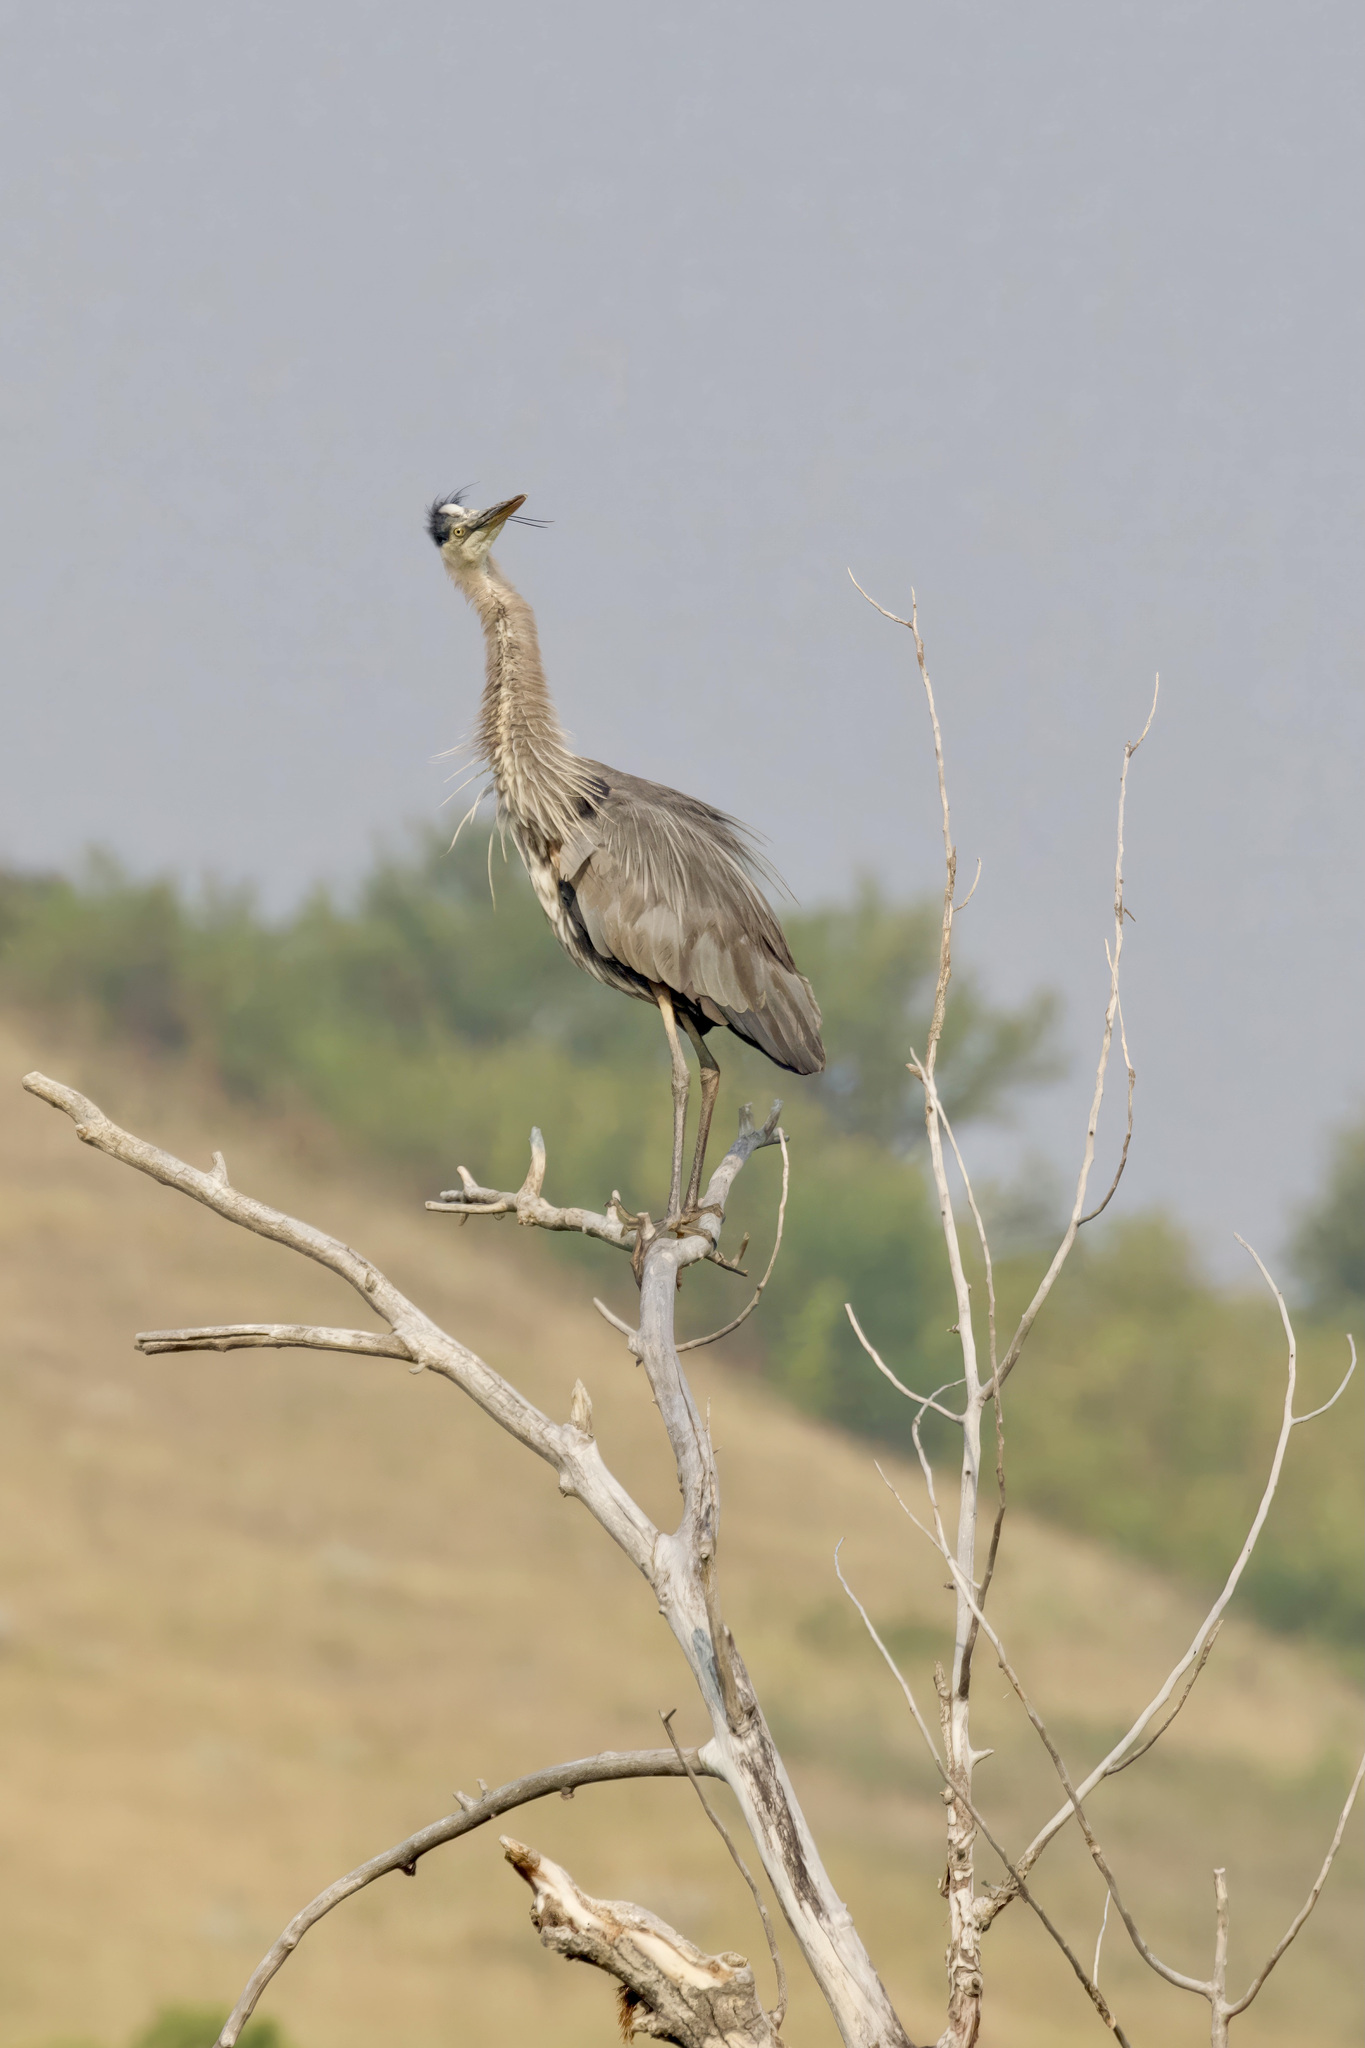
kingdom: Animalia
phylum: Chordata
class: Aves
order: Pelecaniformes
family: Ardeidae
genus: Ardea
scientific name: Ardea herodias
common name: Great blue heron
